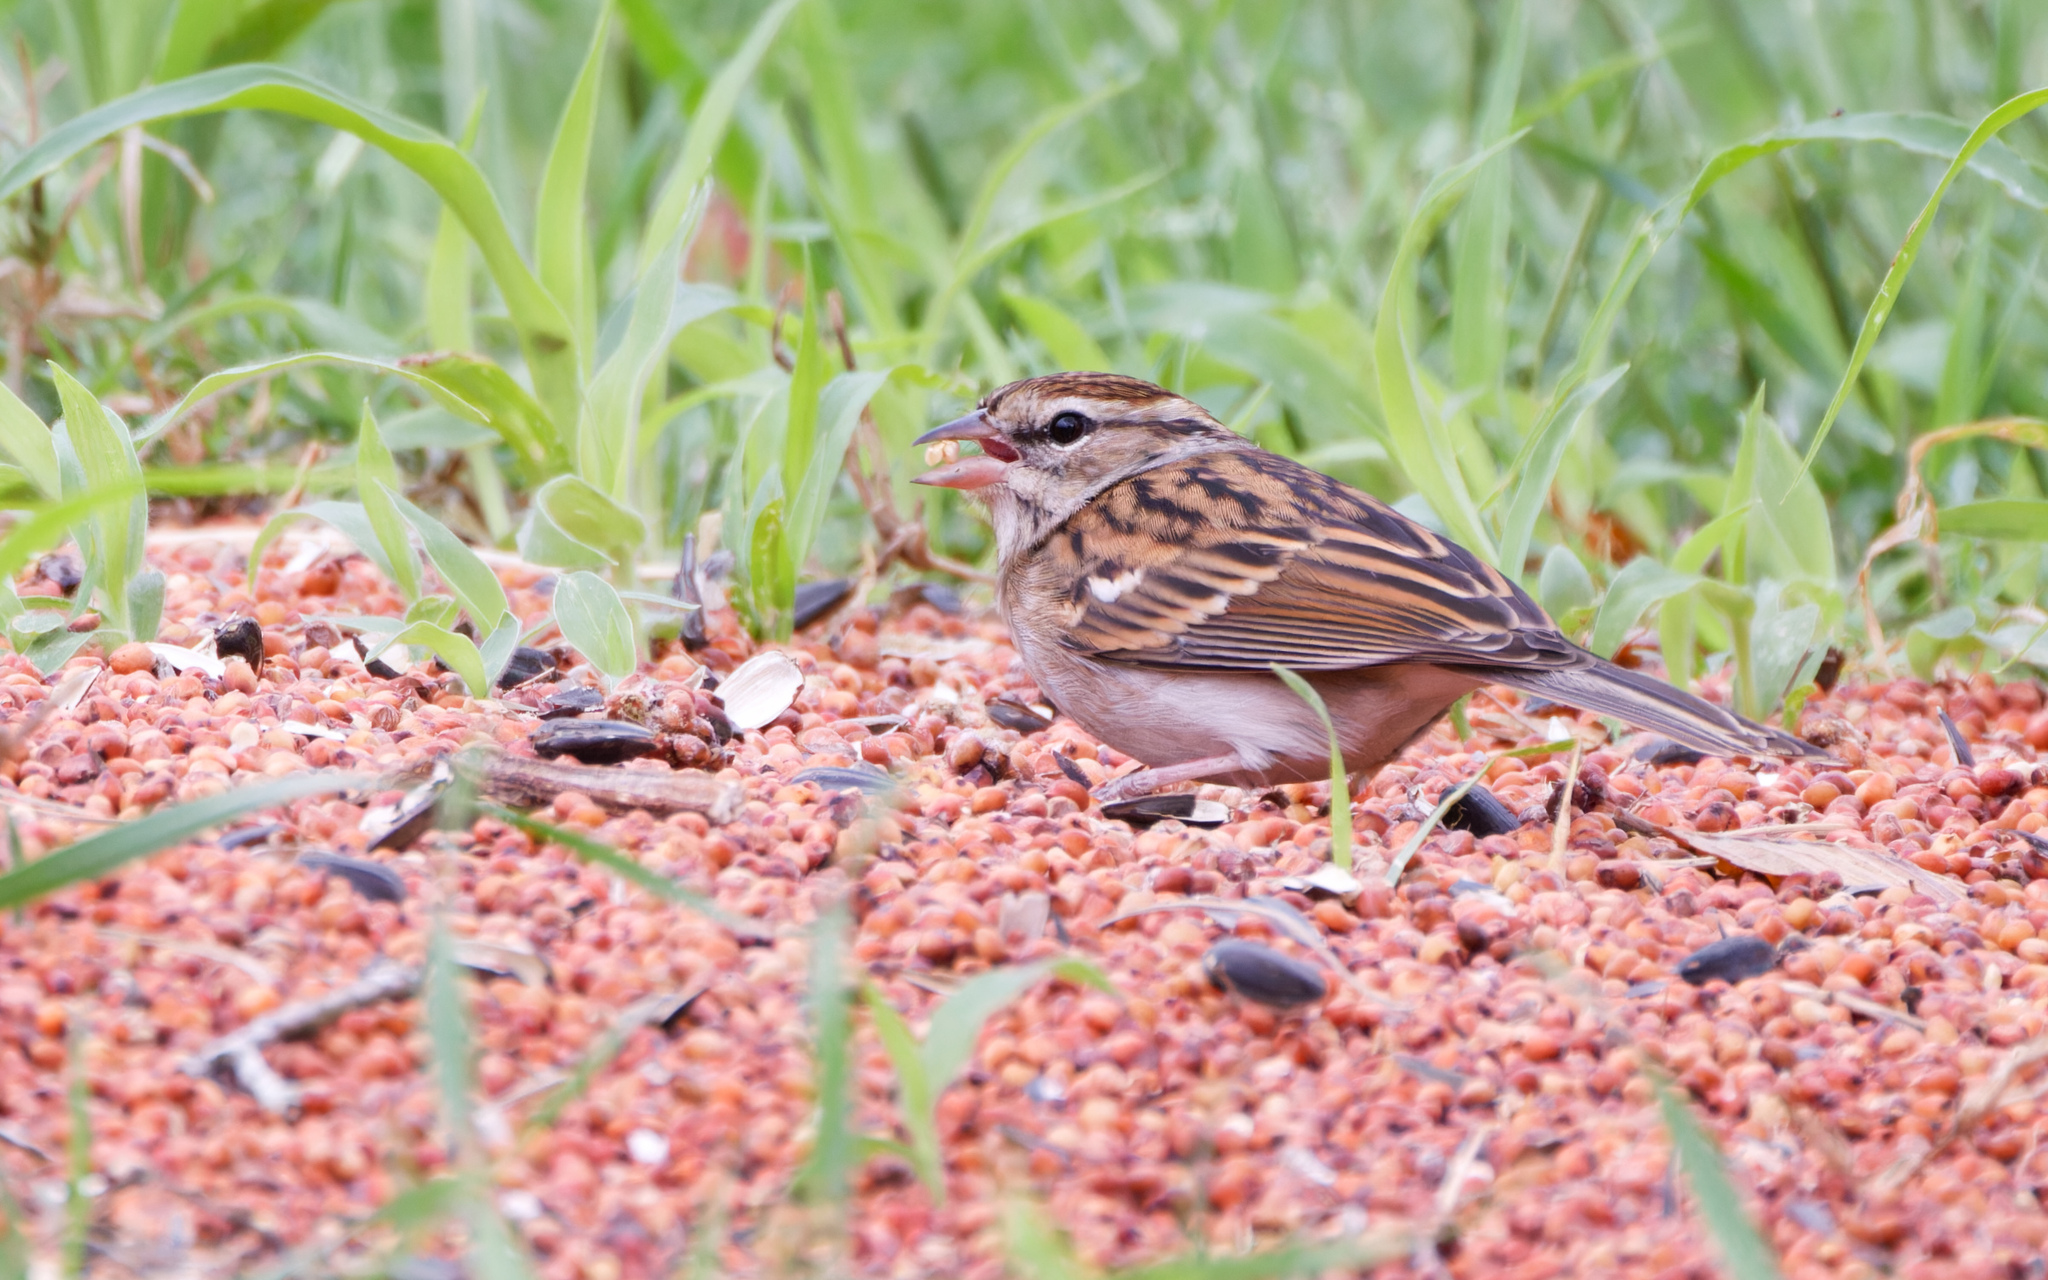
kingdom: Animalia
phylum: Chordata
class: Aves
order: Passeriformes
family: Passerellidae
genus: Spizella
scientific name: Spizella passerina
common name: Chipping sparrow
